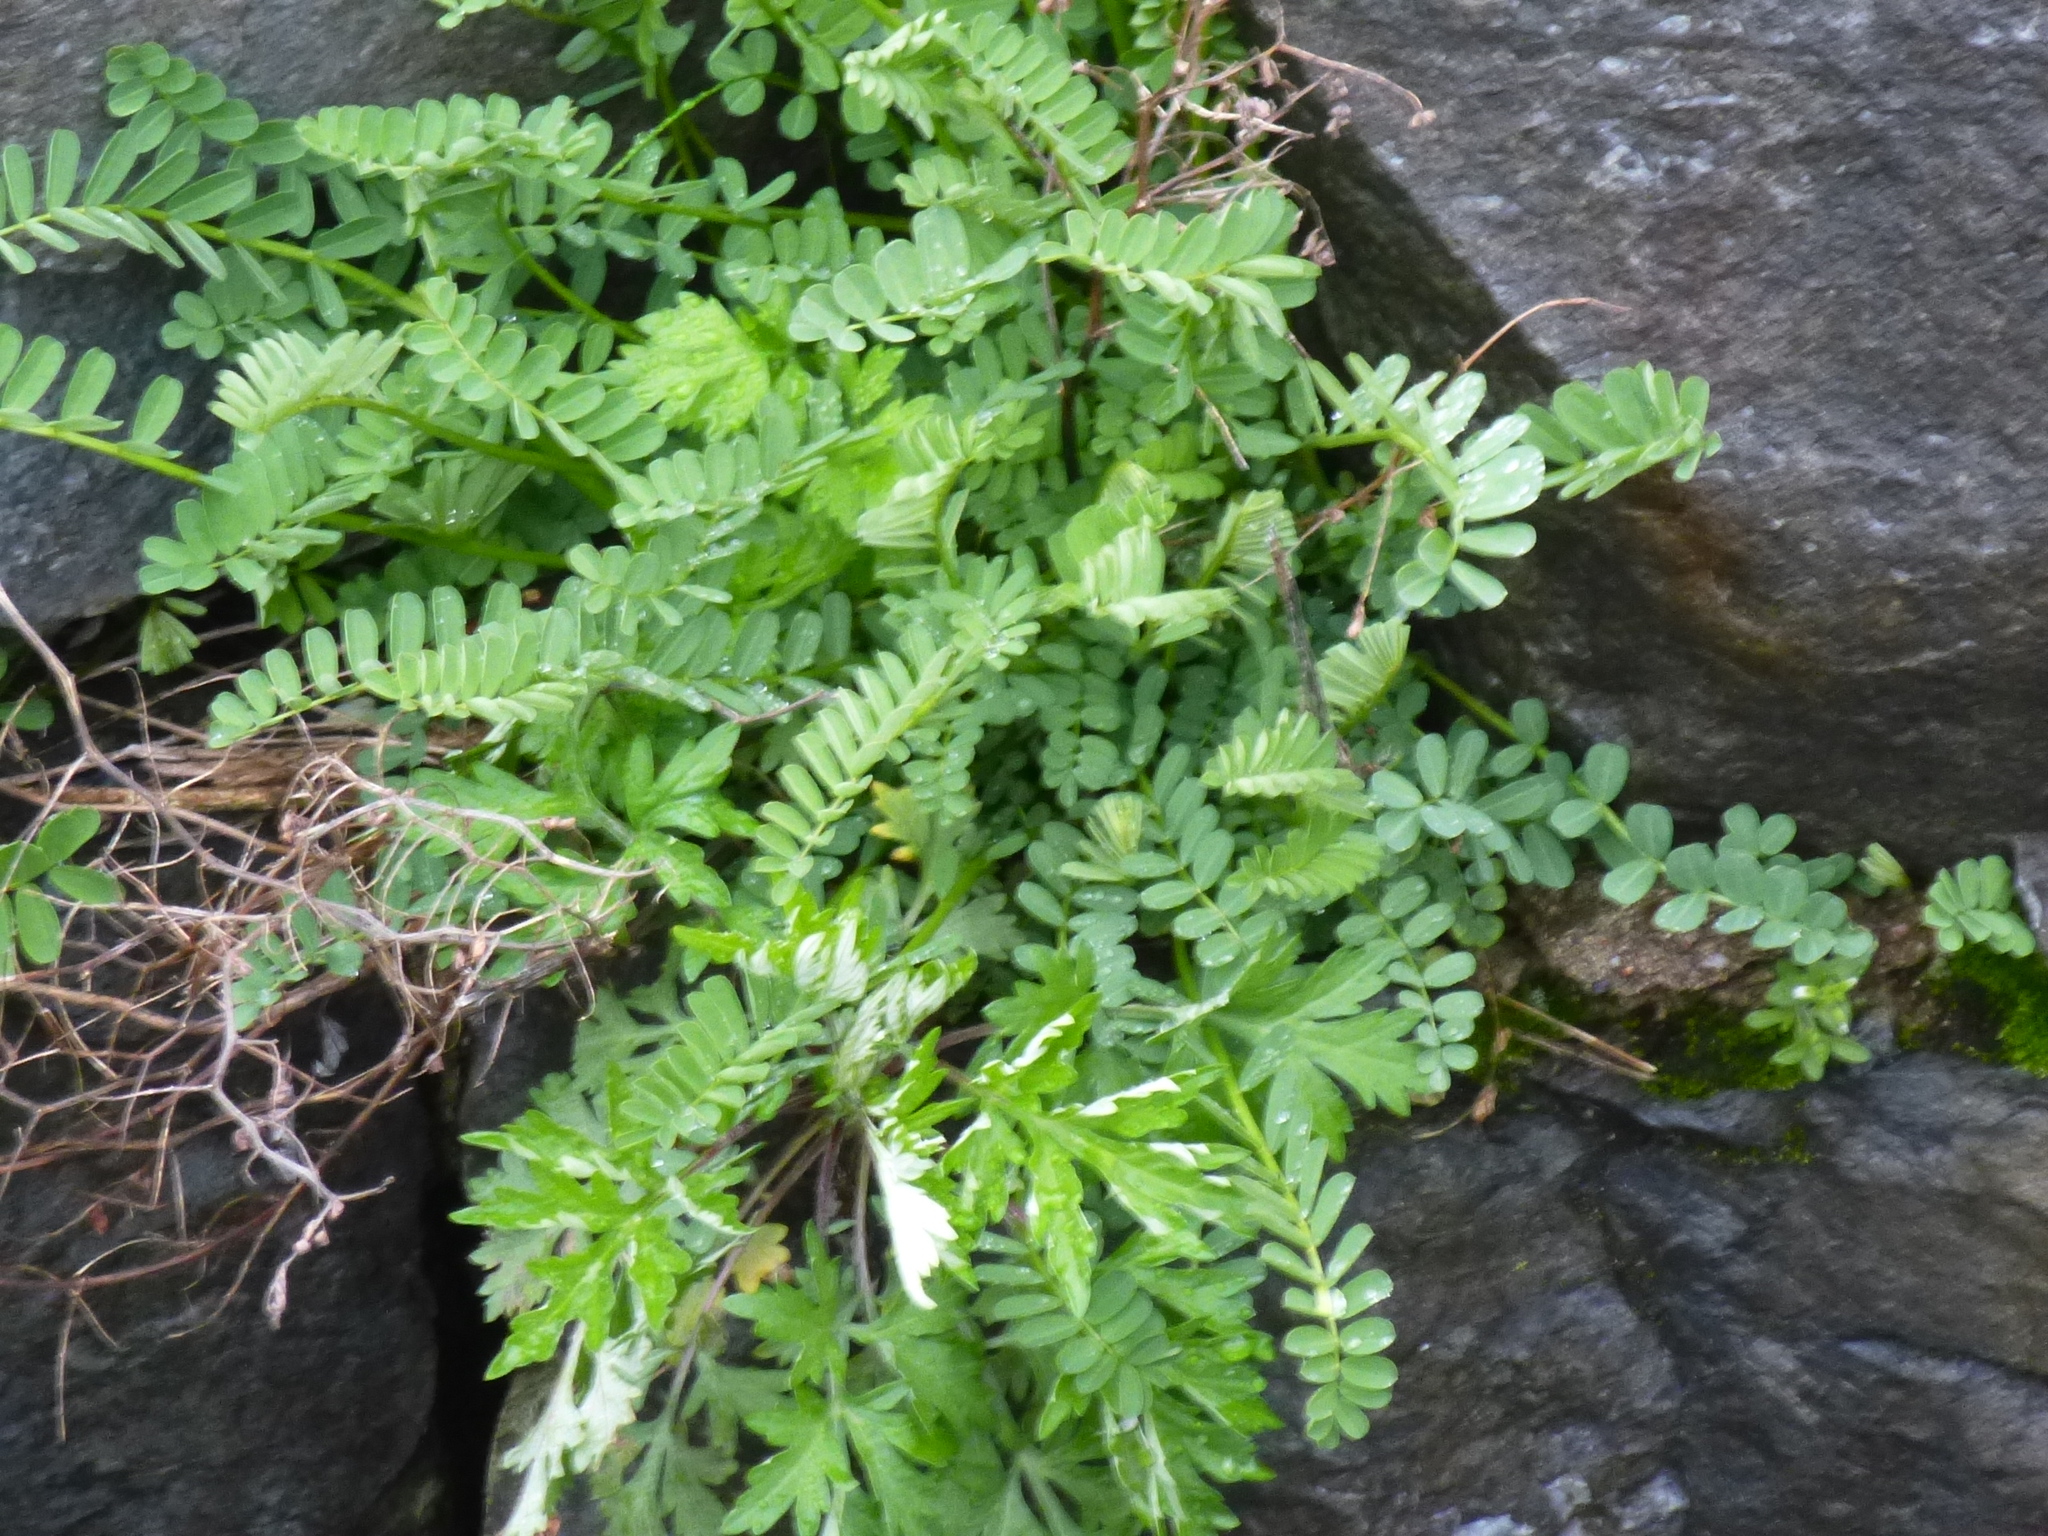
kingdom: Plantae
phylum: Tracheophyta
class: Magnoliopsida
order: Fabales
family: Fabaceae
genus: Coronilla
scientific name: Coronilla varia
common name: Crownvetch
